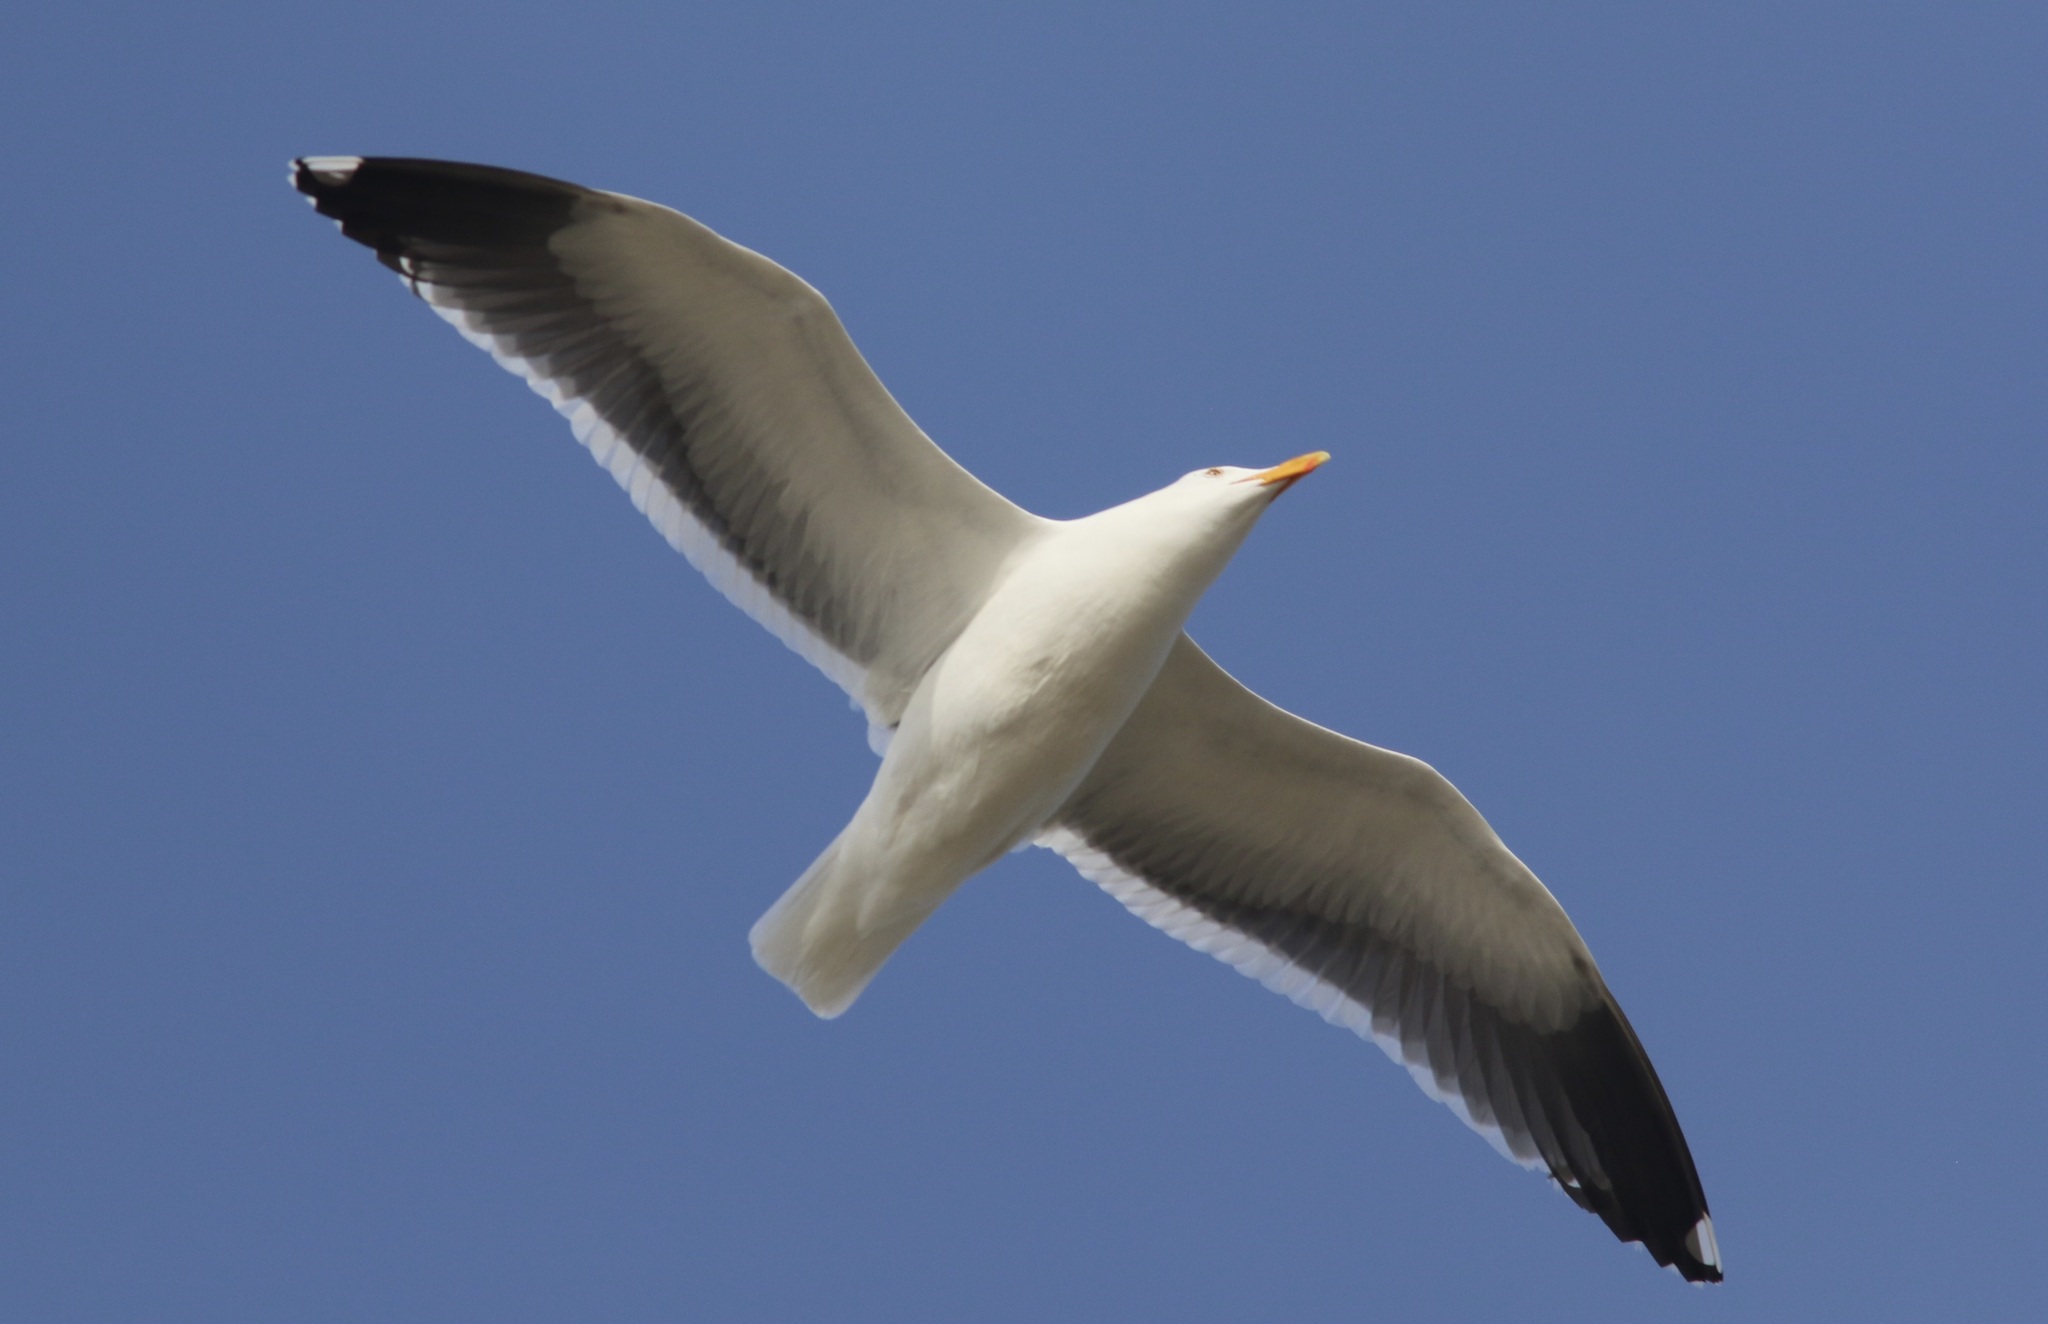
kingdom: Animalia
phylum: Chordata
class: Aves
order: Charadriiformes
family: Laridae
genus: Larus
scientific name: Larus occidentalis
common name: Western gull
